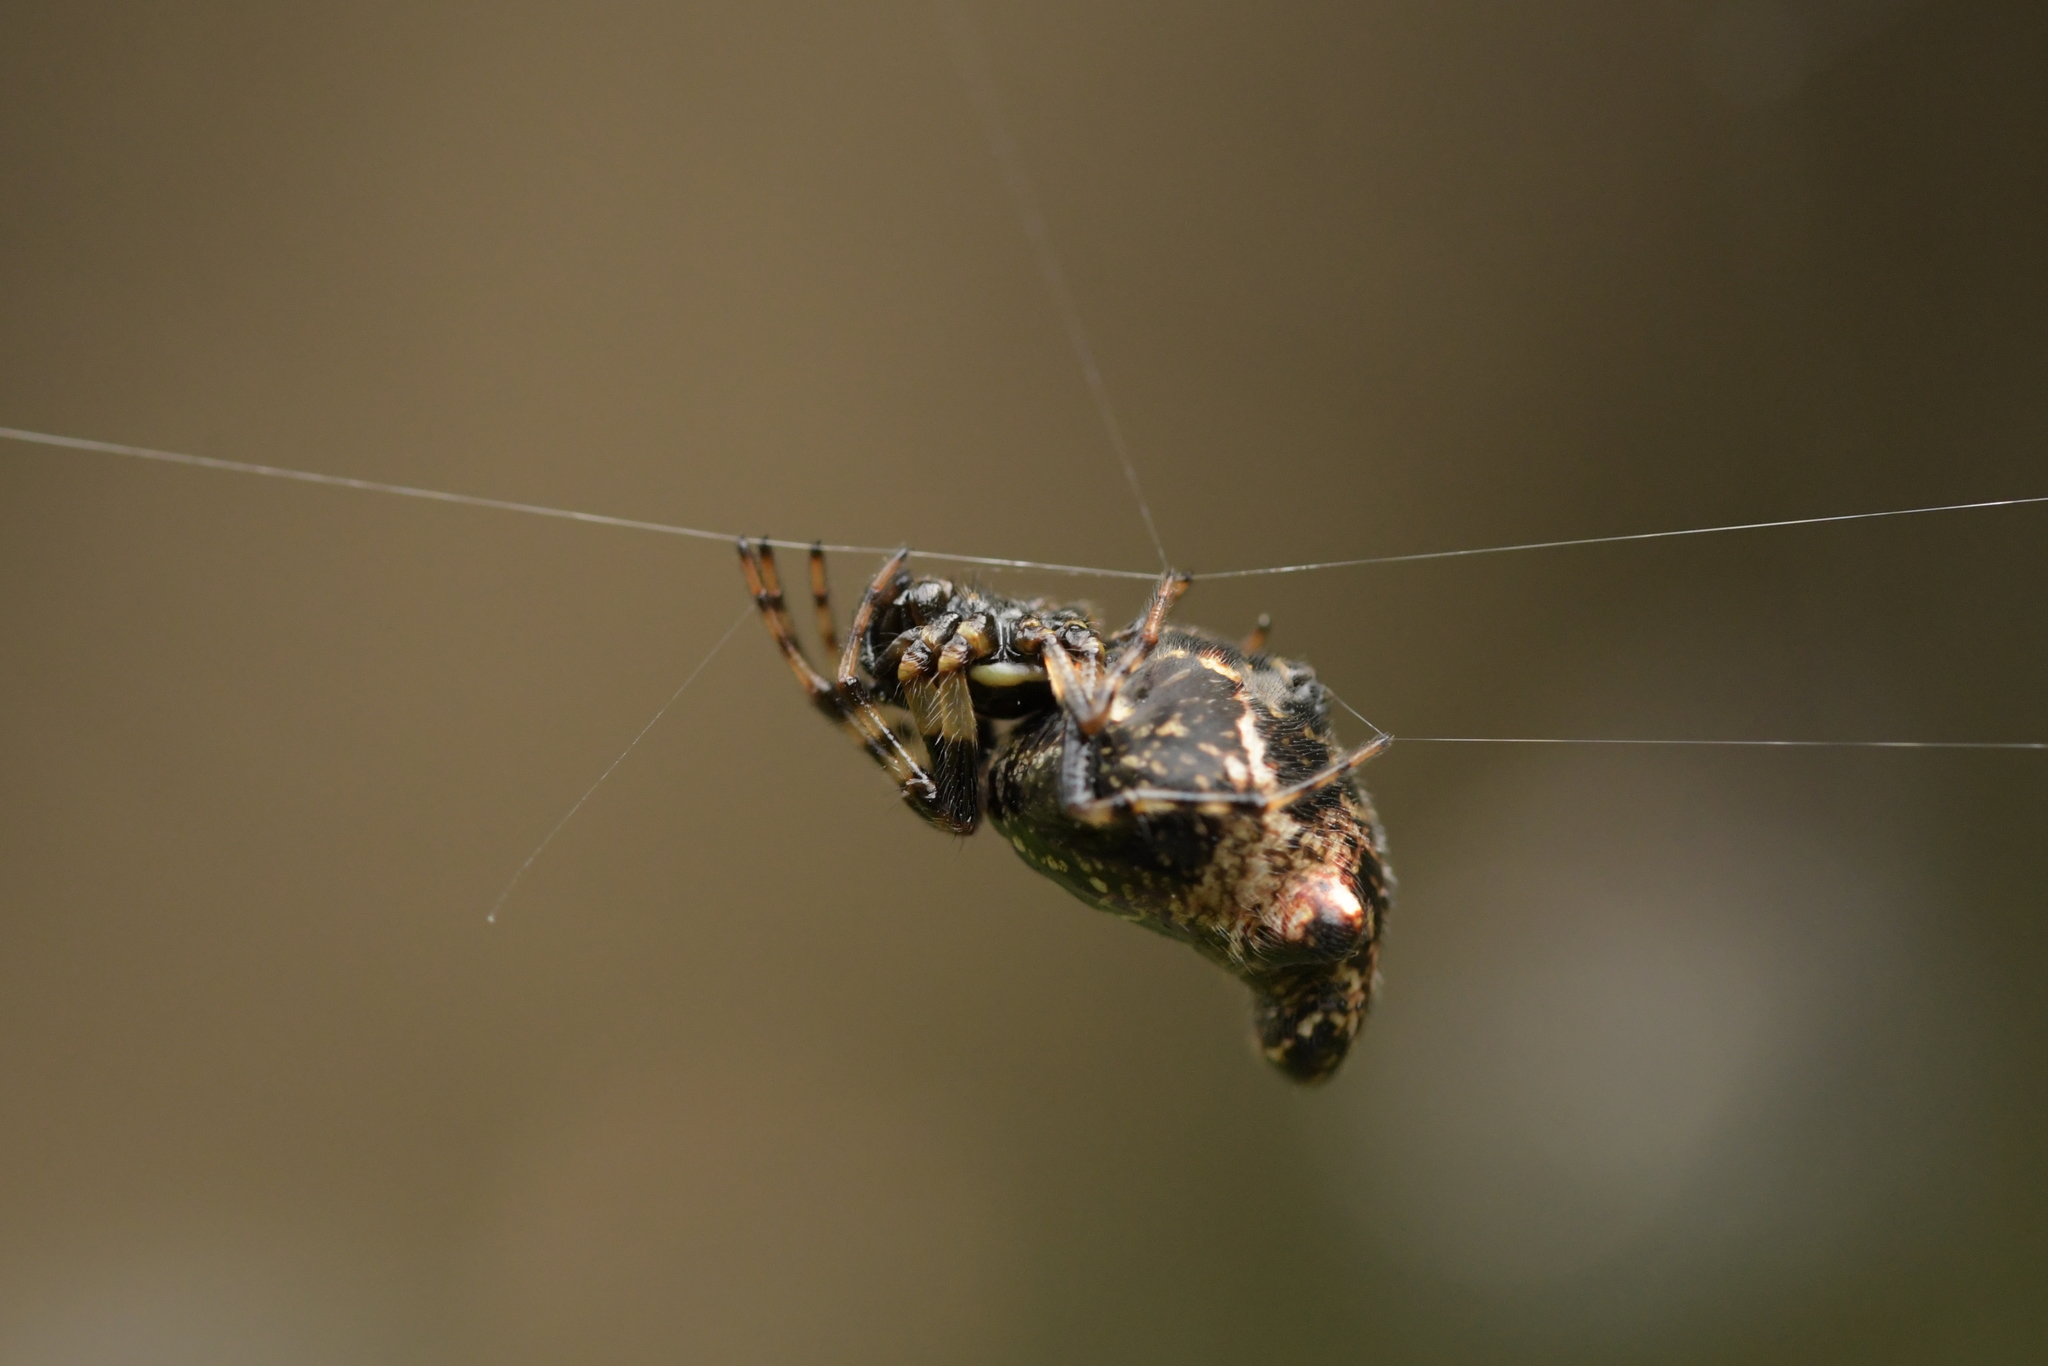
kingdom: Animalia
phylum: Arthropoda
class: Arachnida
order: Araneae
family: Araneidae
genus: Cyclosa
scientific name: Cyclosa trilobata
